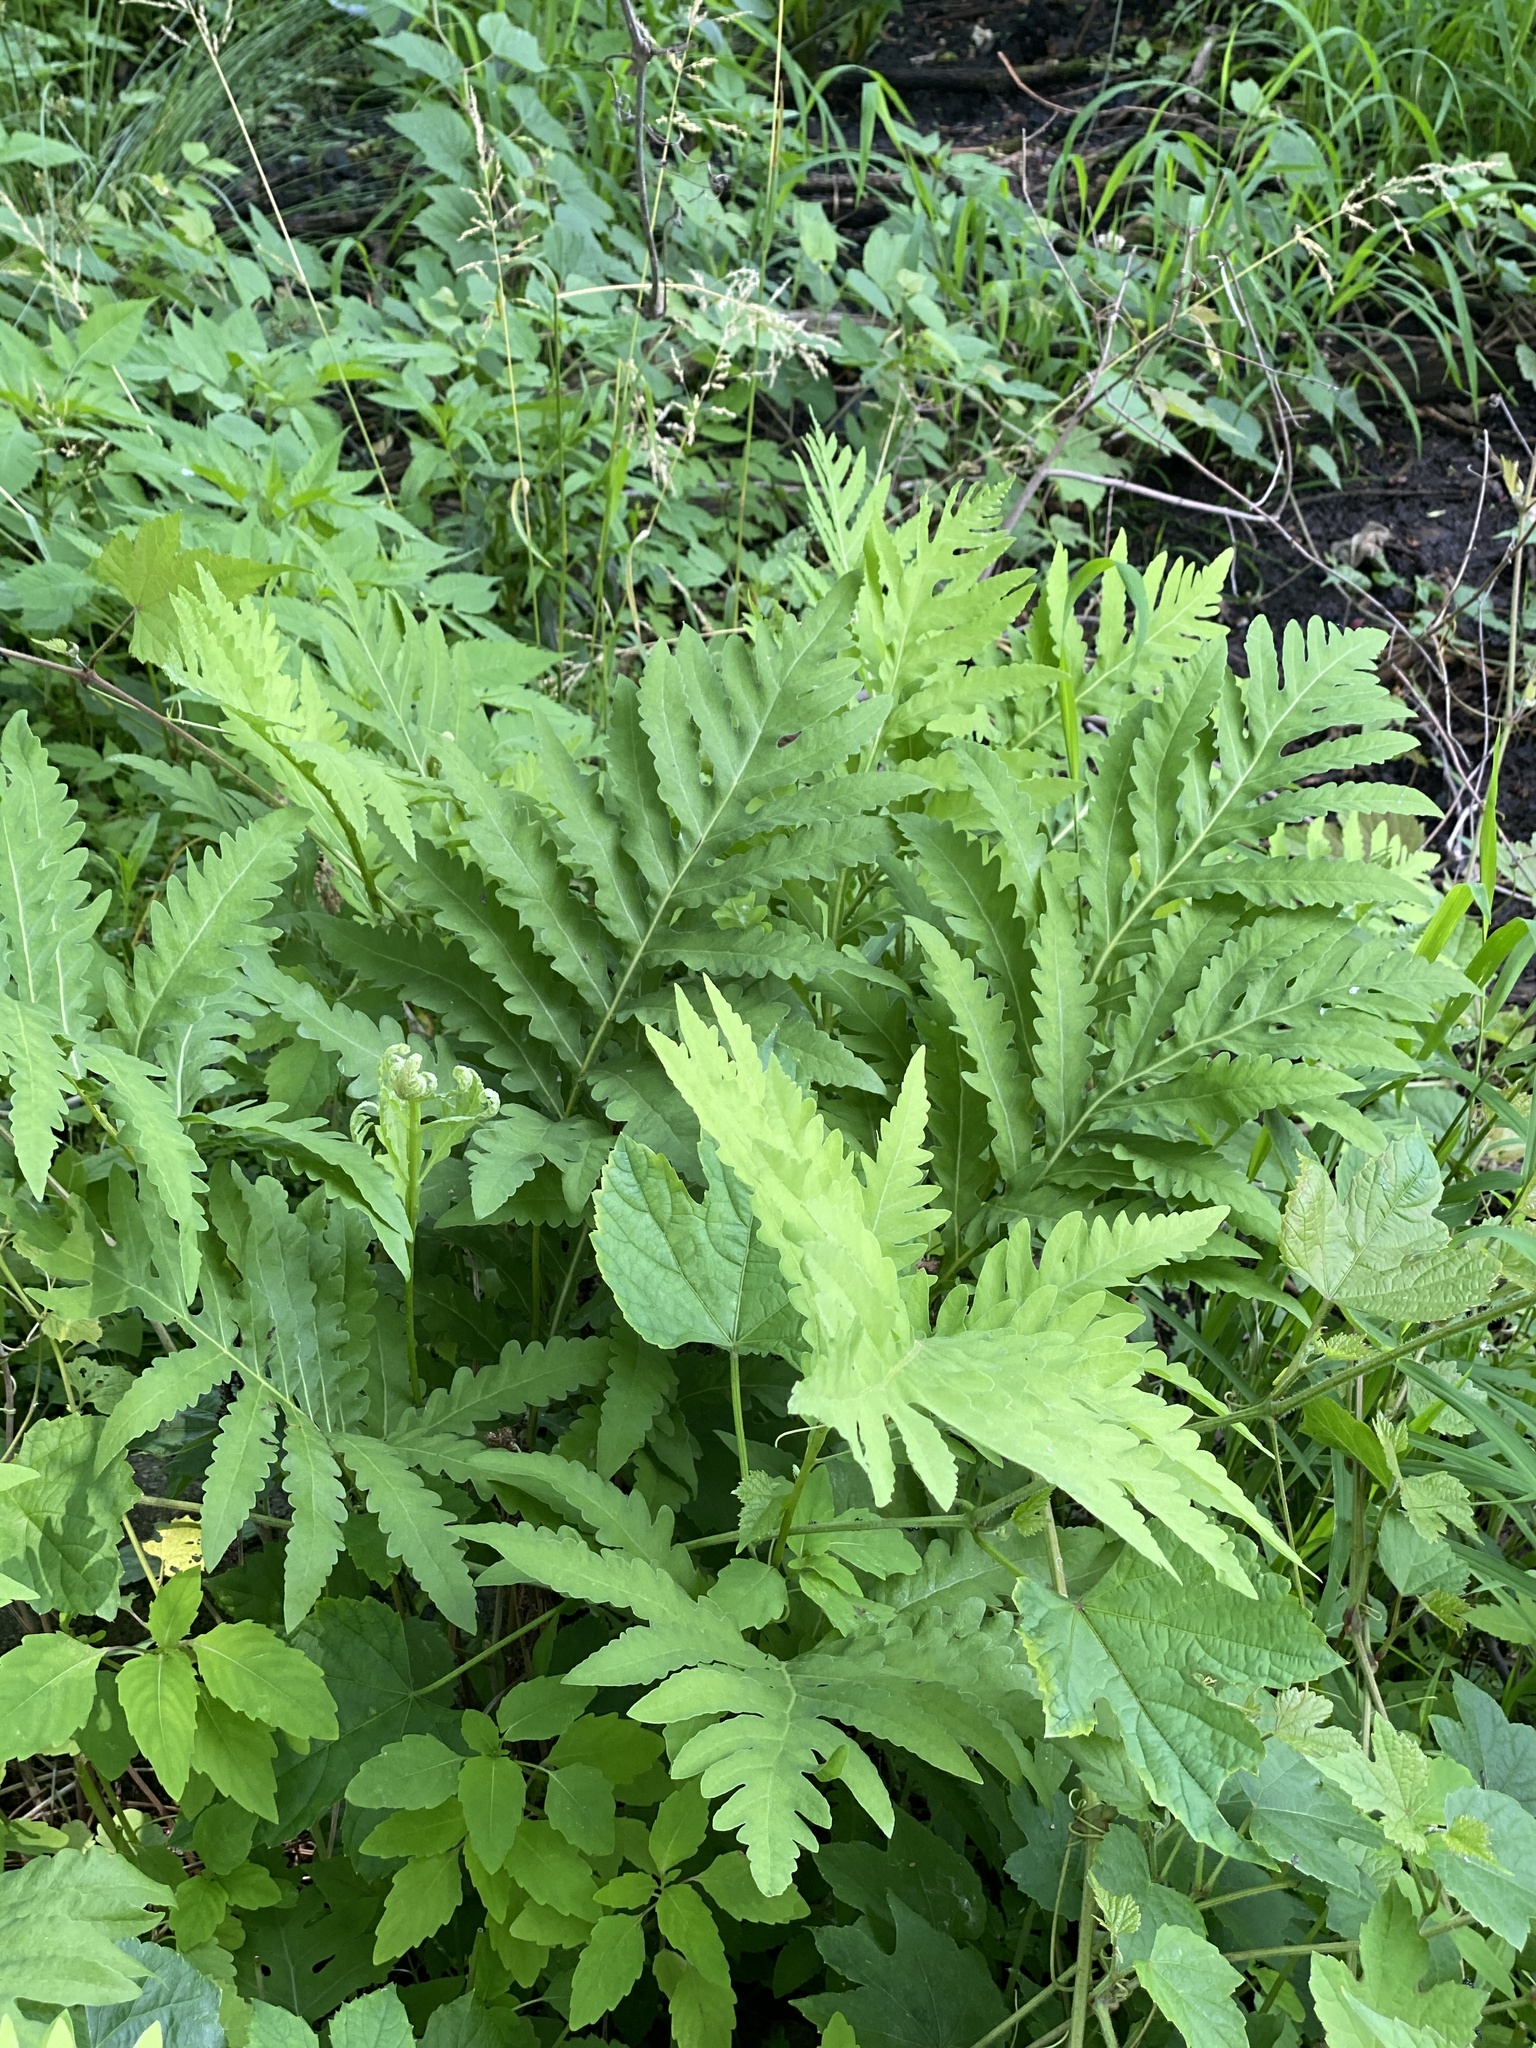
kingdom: Plantae
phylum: Tracheophyta
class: Polypodiopsida
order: Polypodiales
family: Onocleaceae
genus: Onoclea
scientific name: Onoclea sensibilis
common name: Sensitive fern
